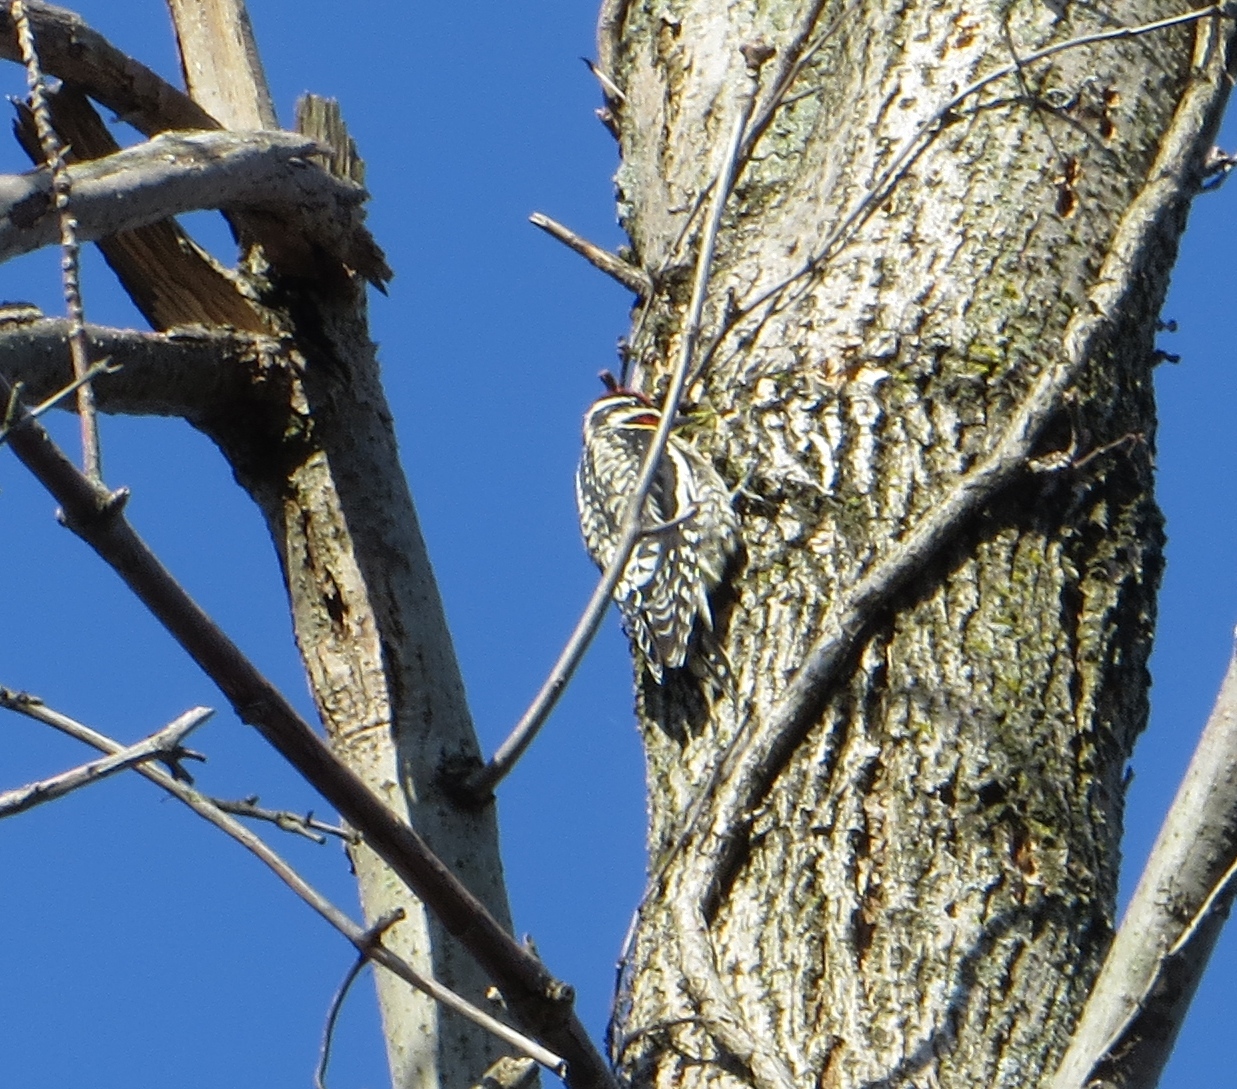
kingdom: Animalia
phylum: Chordata
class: Aves
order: Piciformes
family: Picidae
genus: Sphyrapicus
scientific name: Sphyrapicus varius
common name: Yellow-bellied sapsucker
